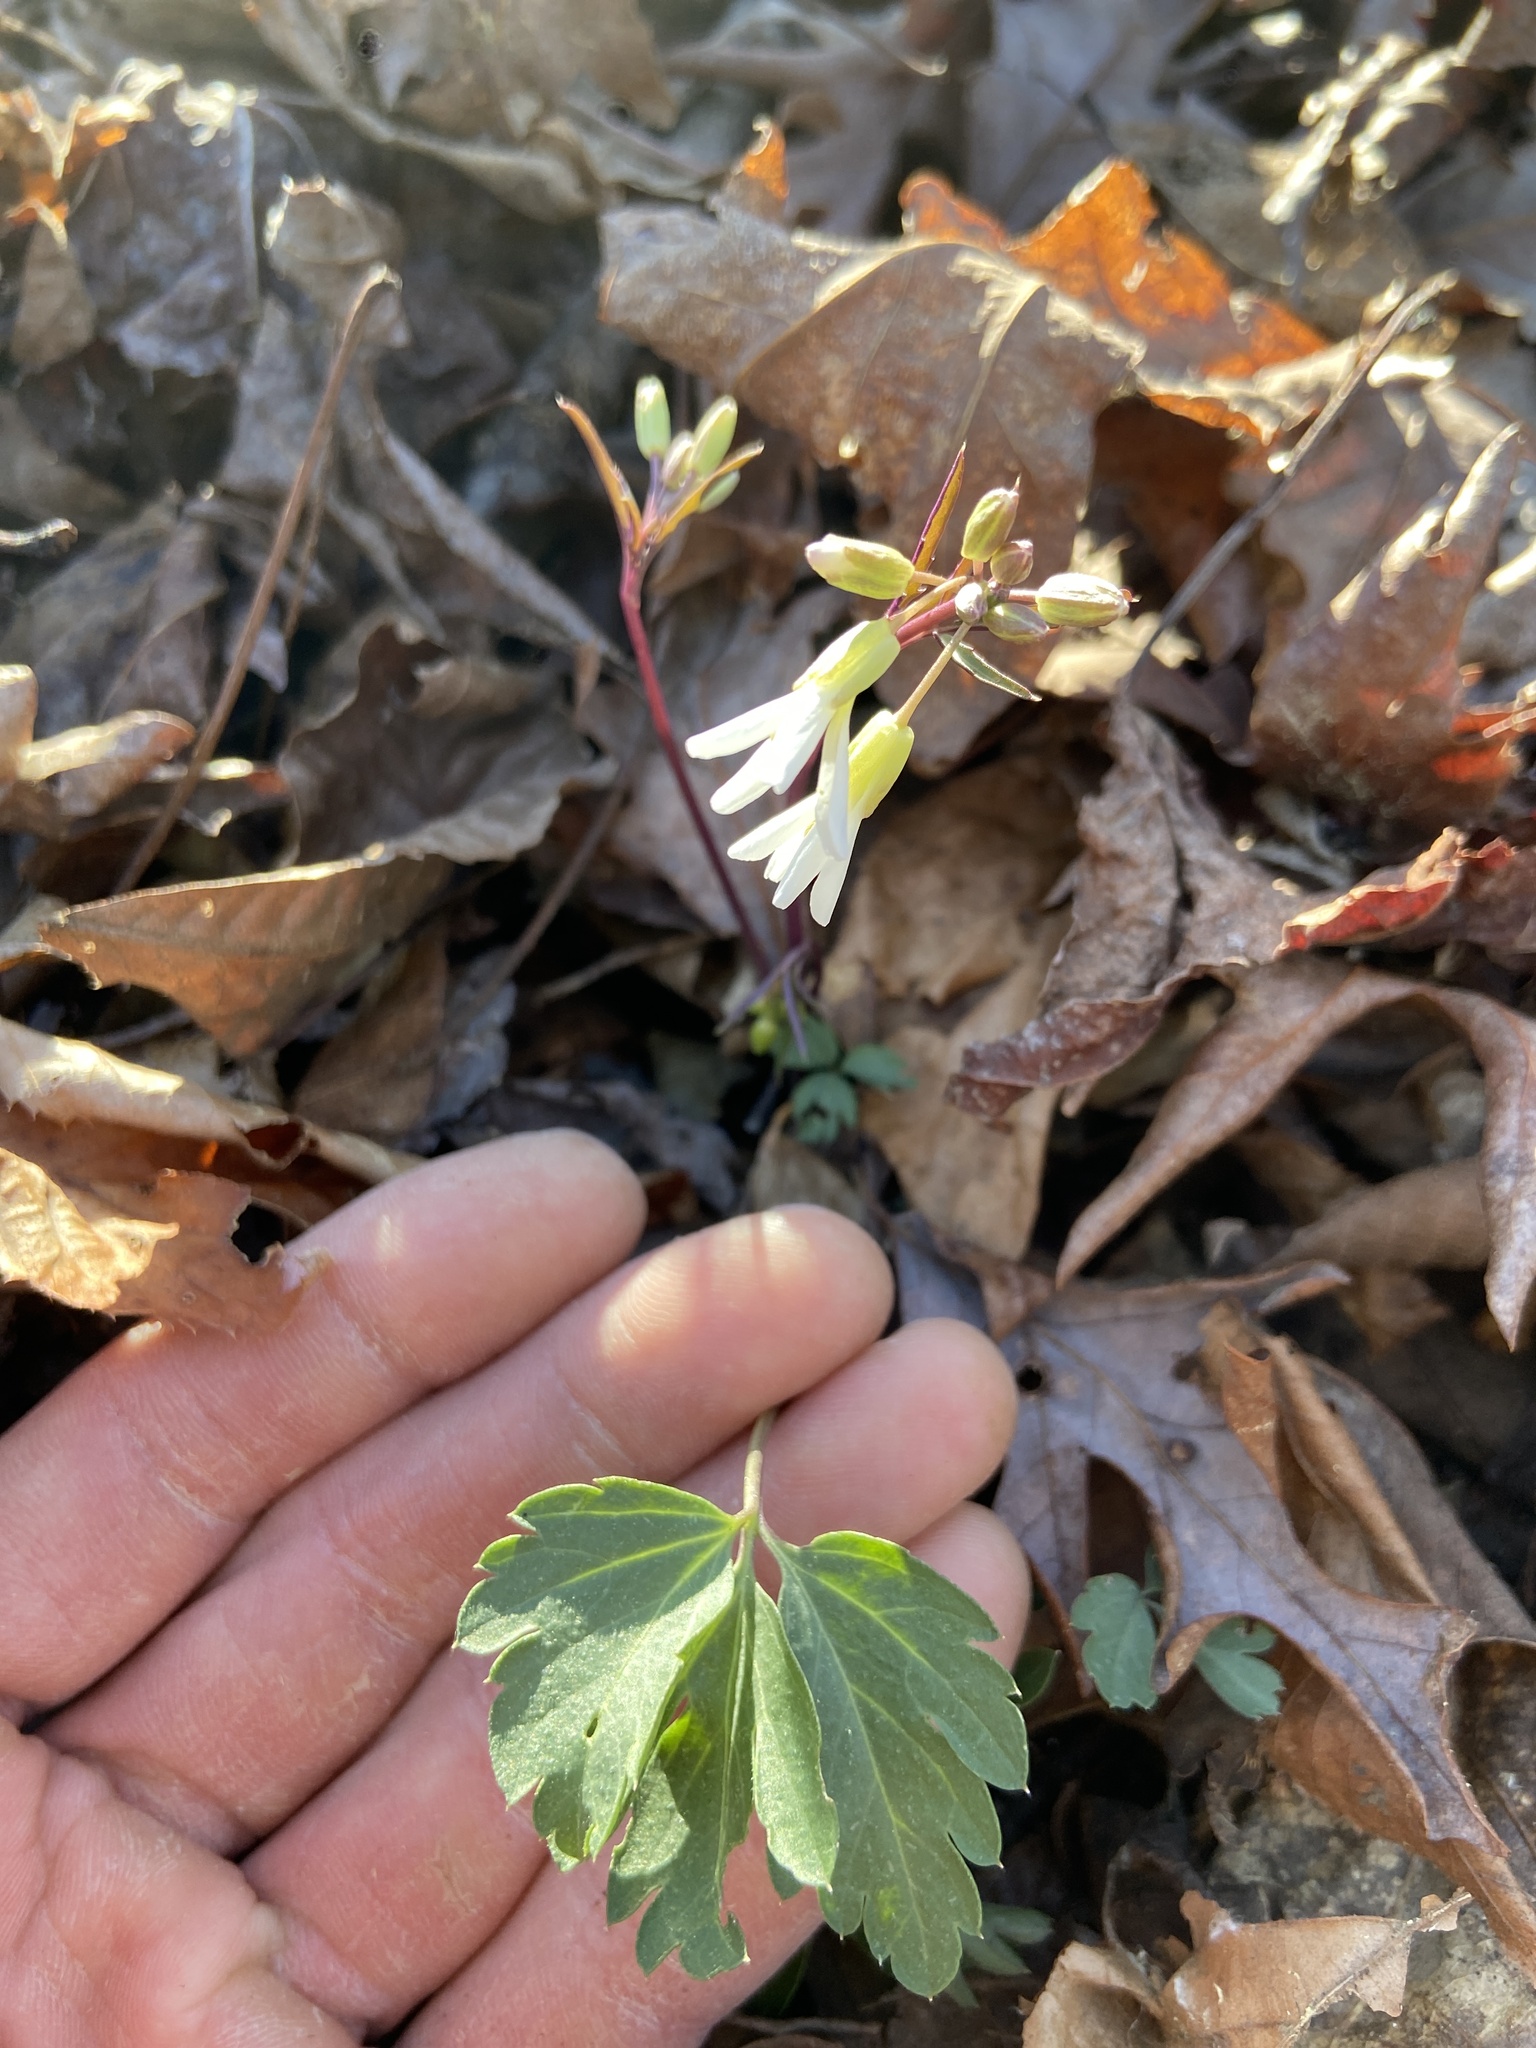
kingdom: Plantae
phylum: Tracheophyta
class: Magnoliopsida
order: Brassicales
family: Brassicaceae
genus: Cardamine
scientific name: Cardamine angustata
